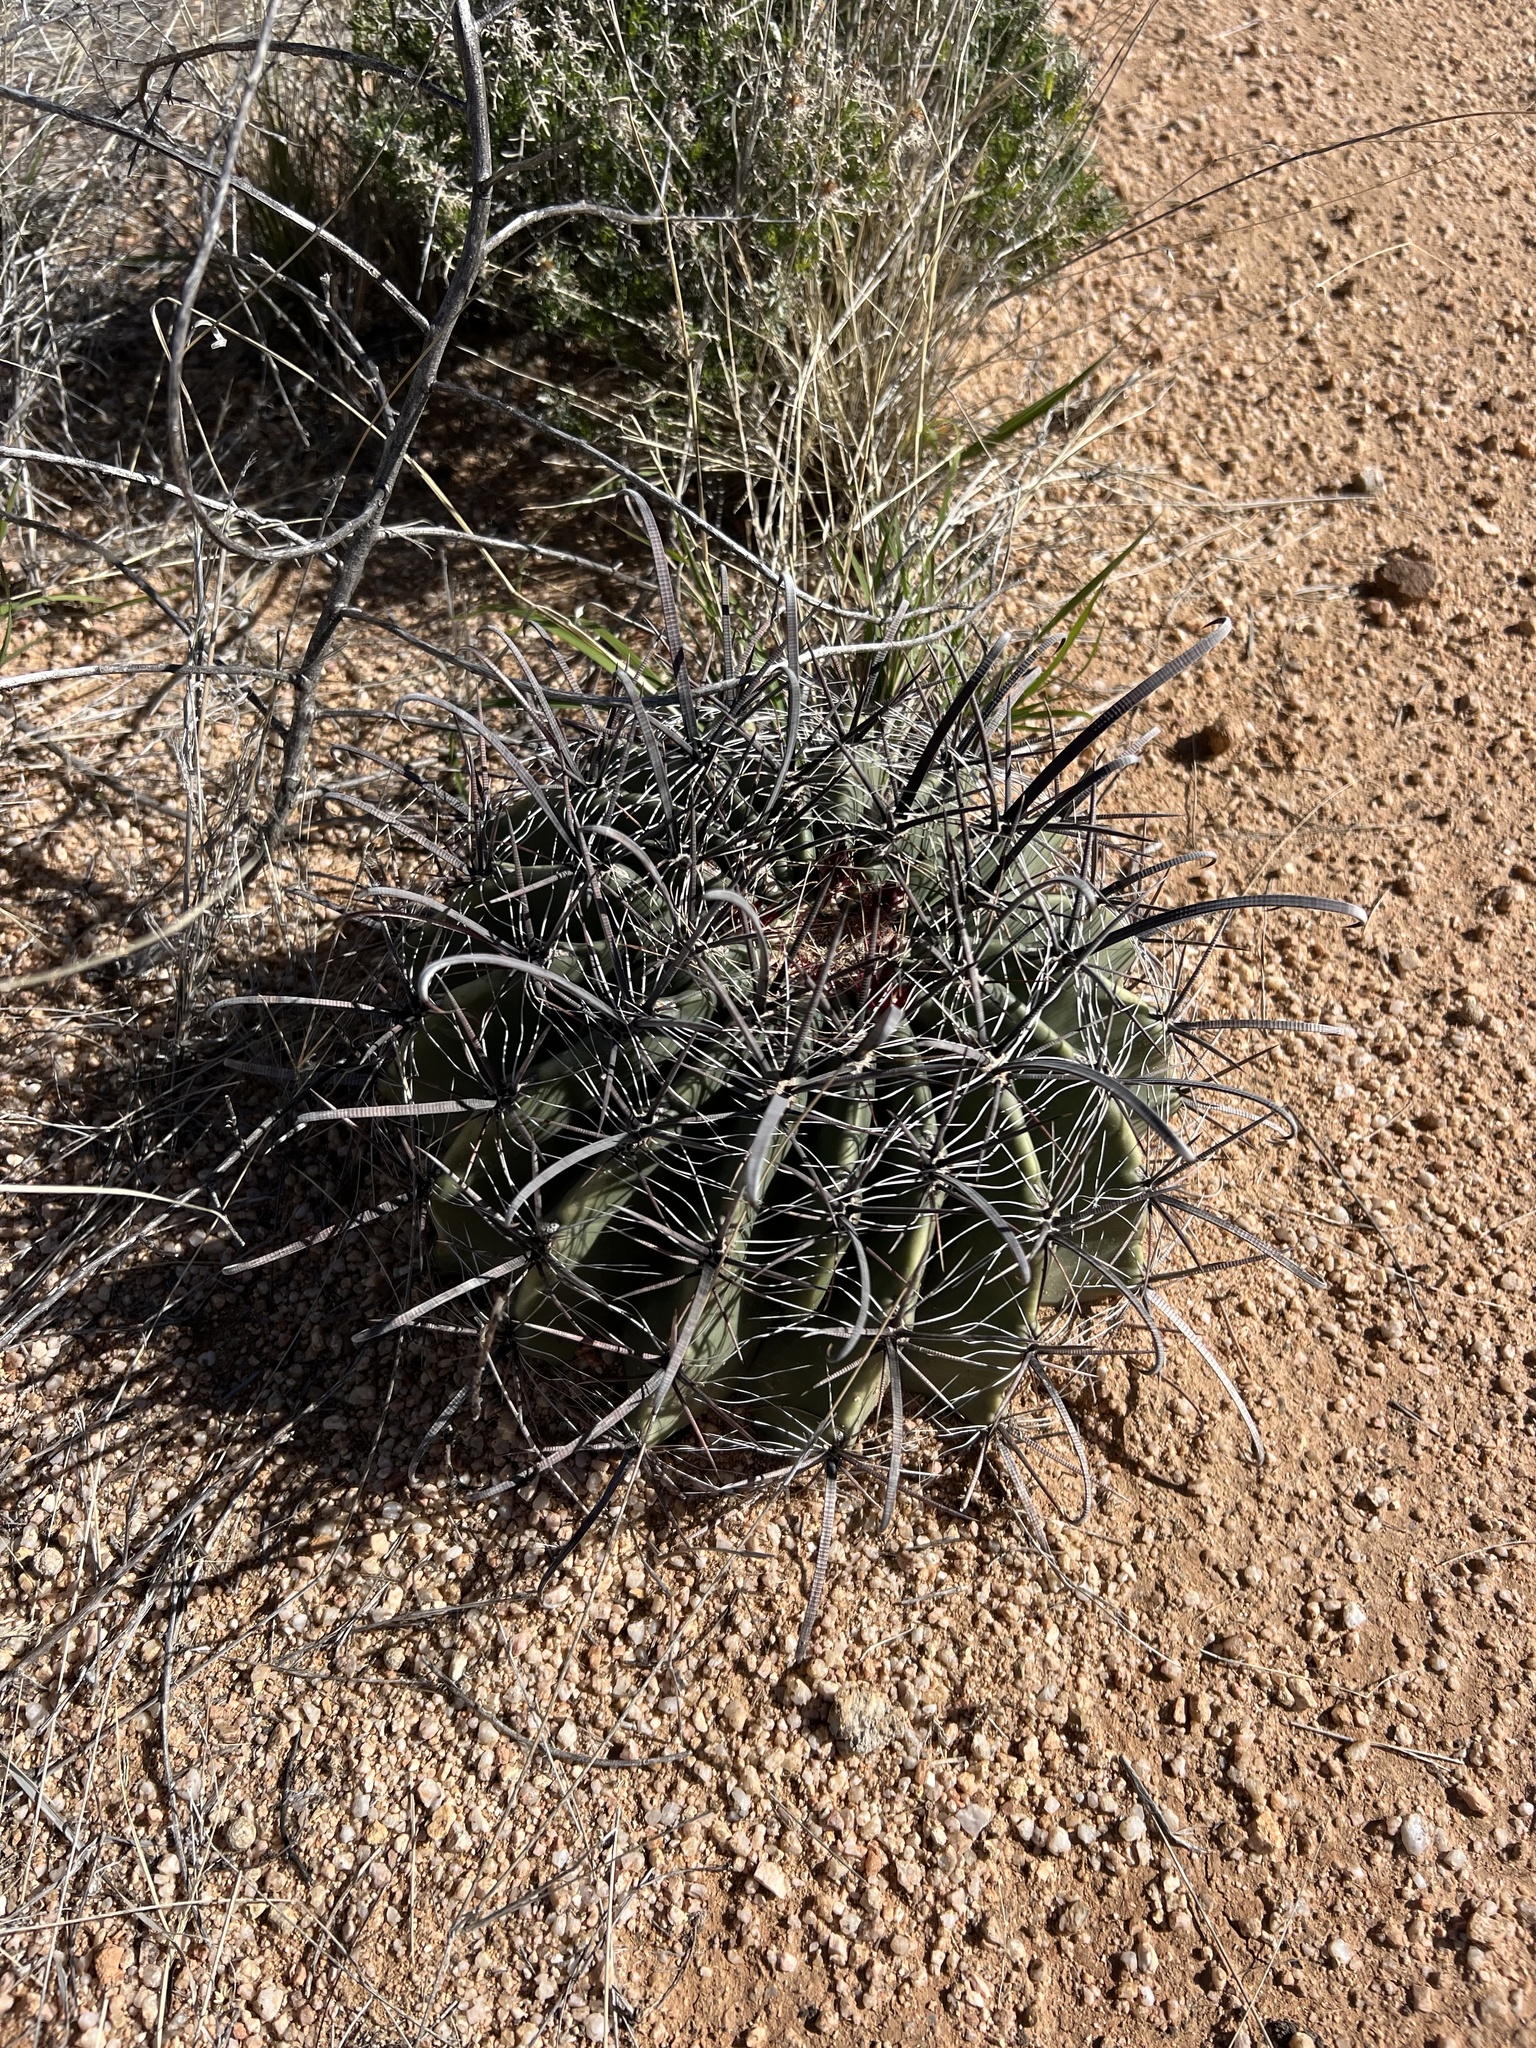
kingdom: Plantae
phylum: Tracheophyta
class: Magnoliopsida
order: Caryophyllales
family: Cactaceae
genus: Ferocactus
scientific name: Ferocactus wislizeni
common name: Candy barrel cactus
